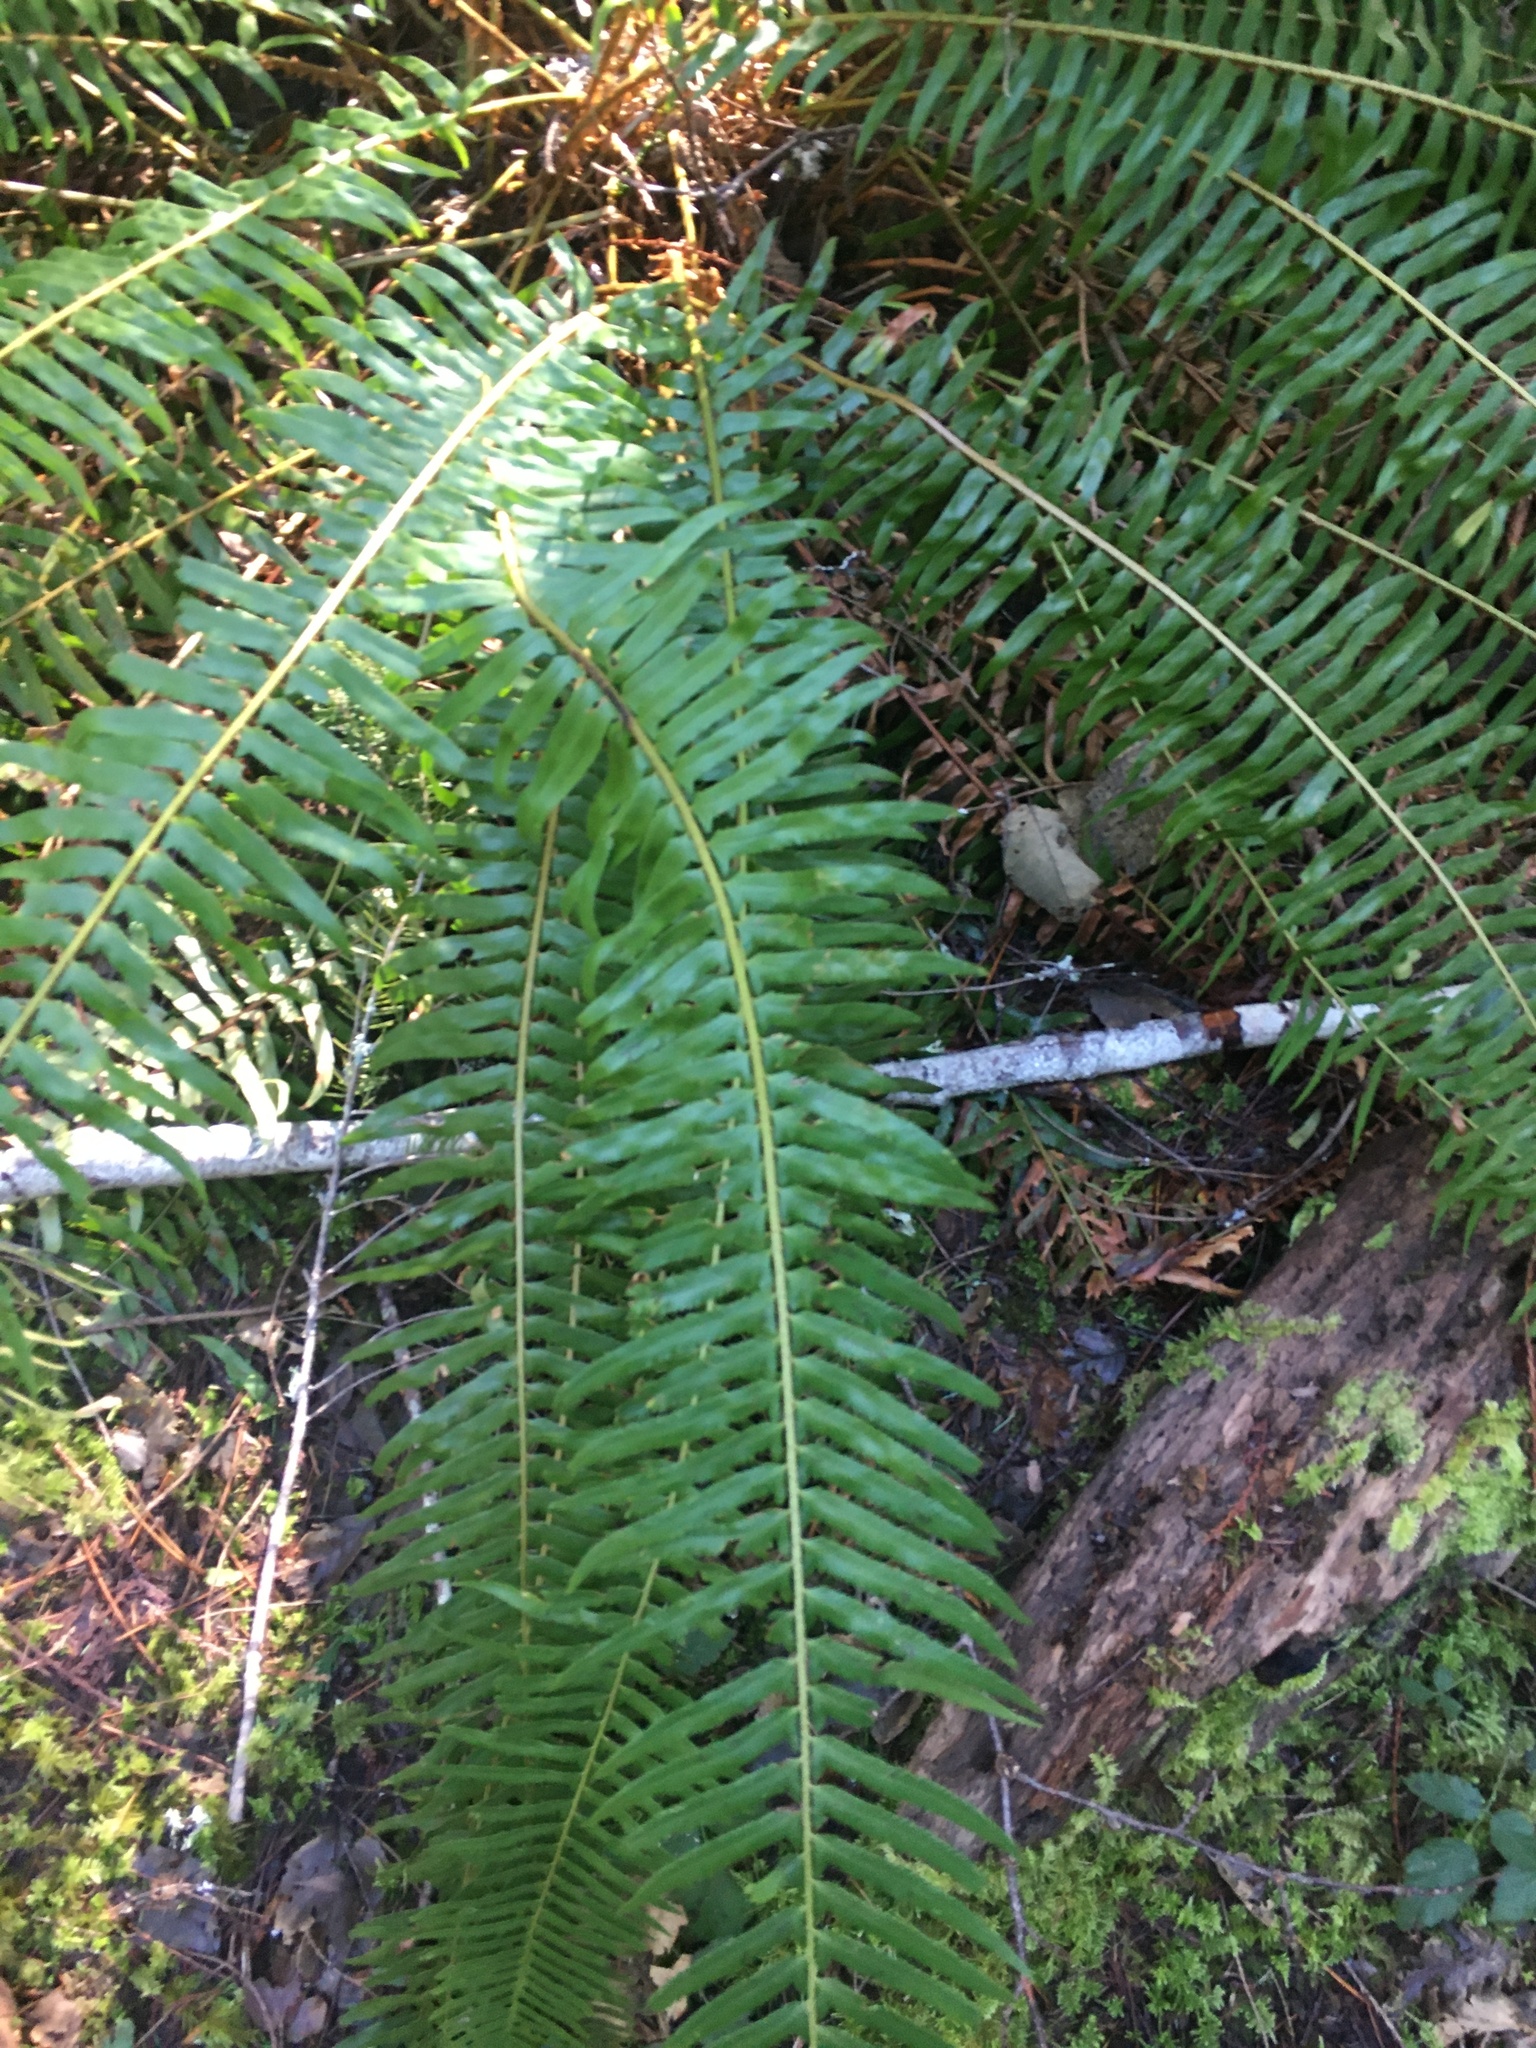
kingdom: Plantae
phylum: Tracheophyta
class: Polypodiopsida
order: Polypodiales
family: Dryopteridaceae
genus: Polystichum
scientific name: Polystichum munitum
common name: Western sword-fern
